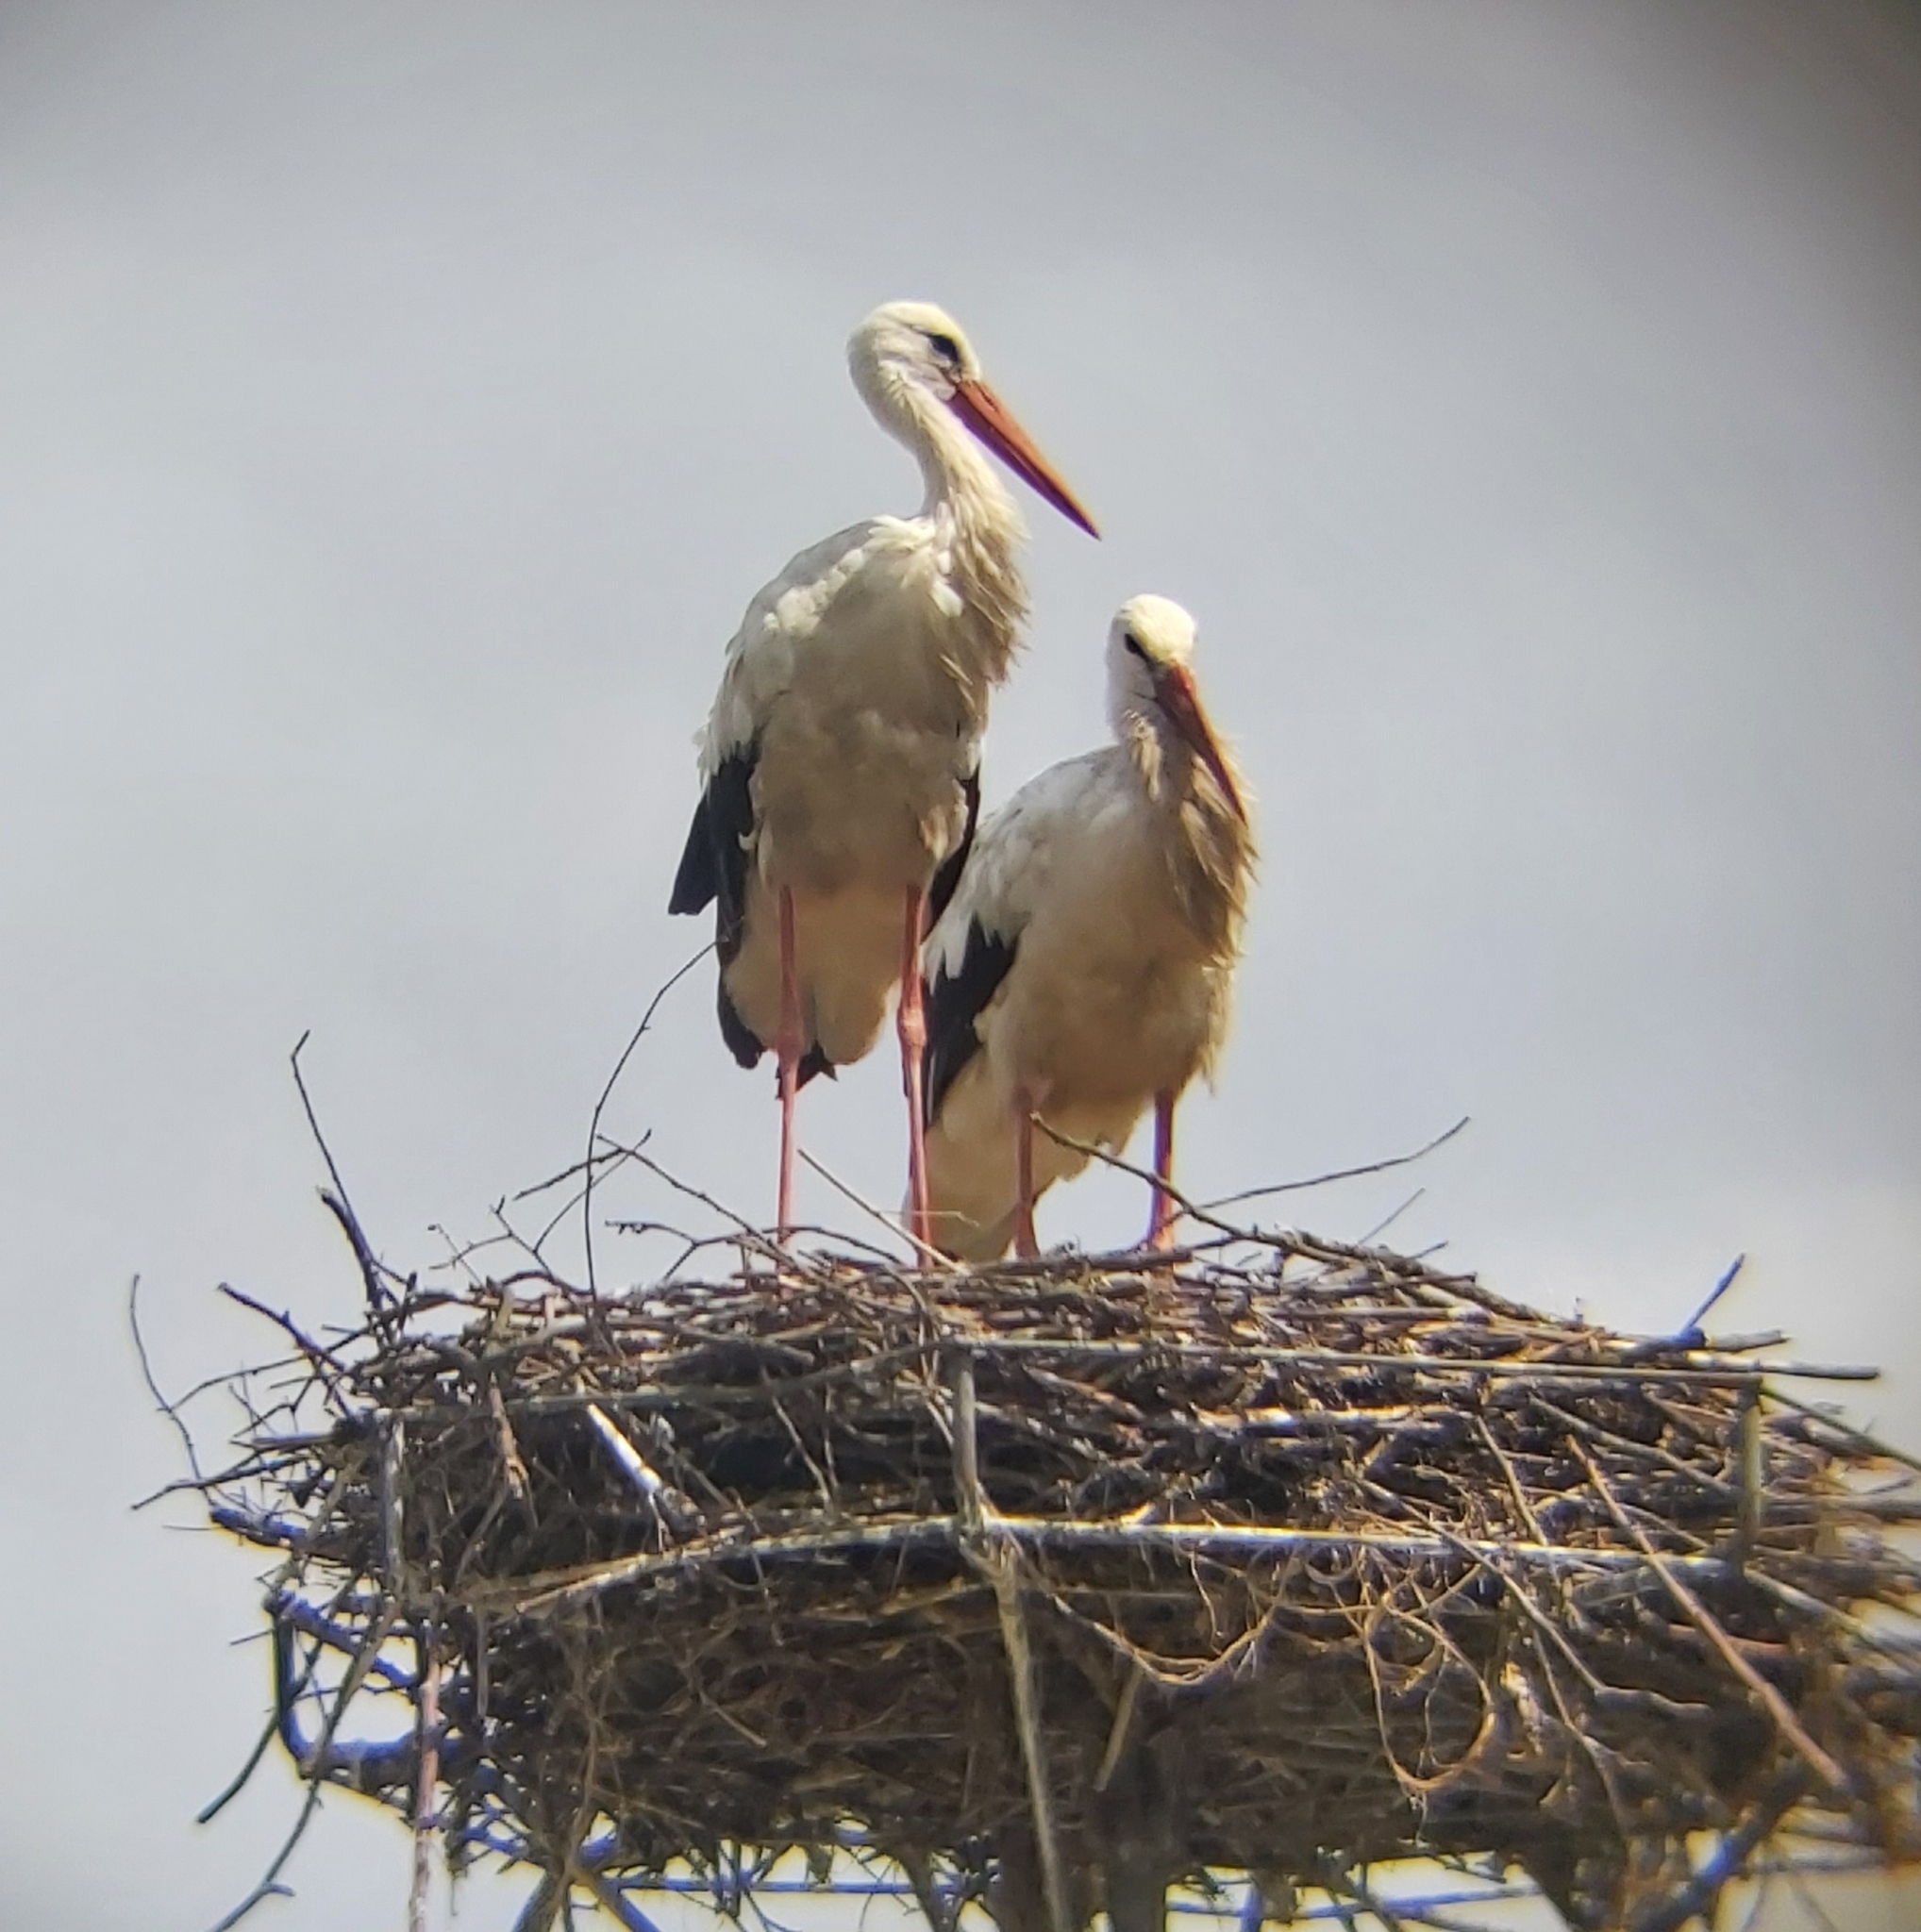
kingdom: Animalia
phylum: Chordata
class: Aves
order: Ciconiiformes
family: Ciconiidae
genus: Ciconia
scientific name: Ciconia ciconia
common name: White stork
